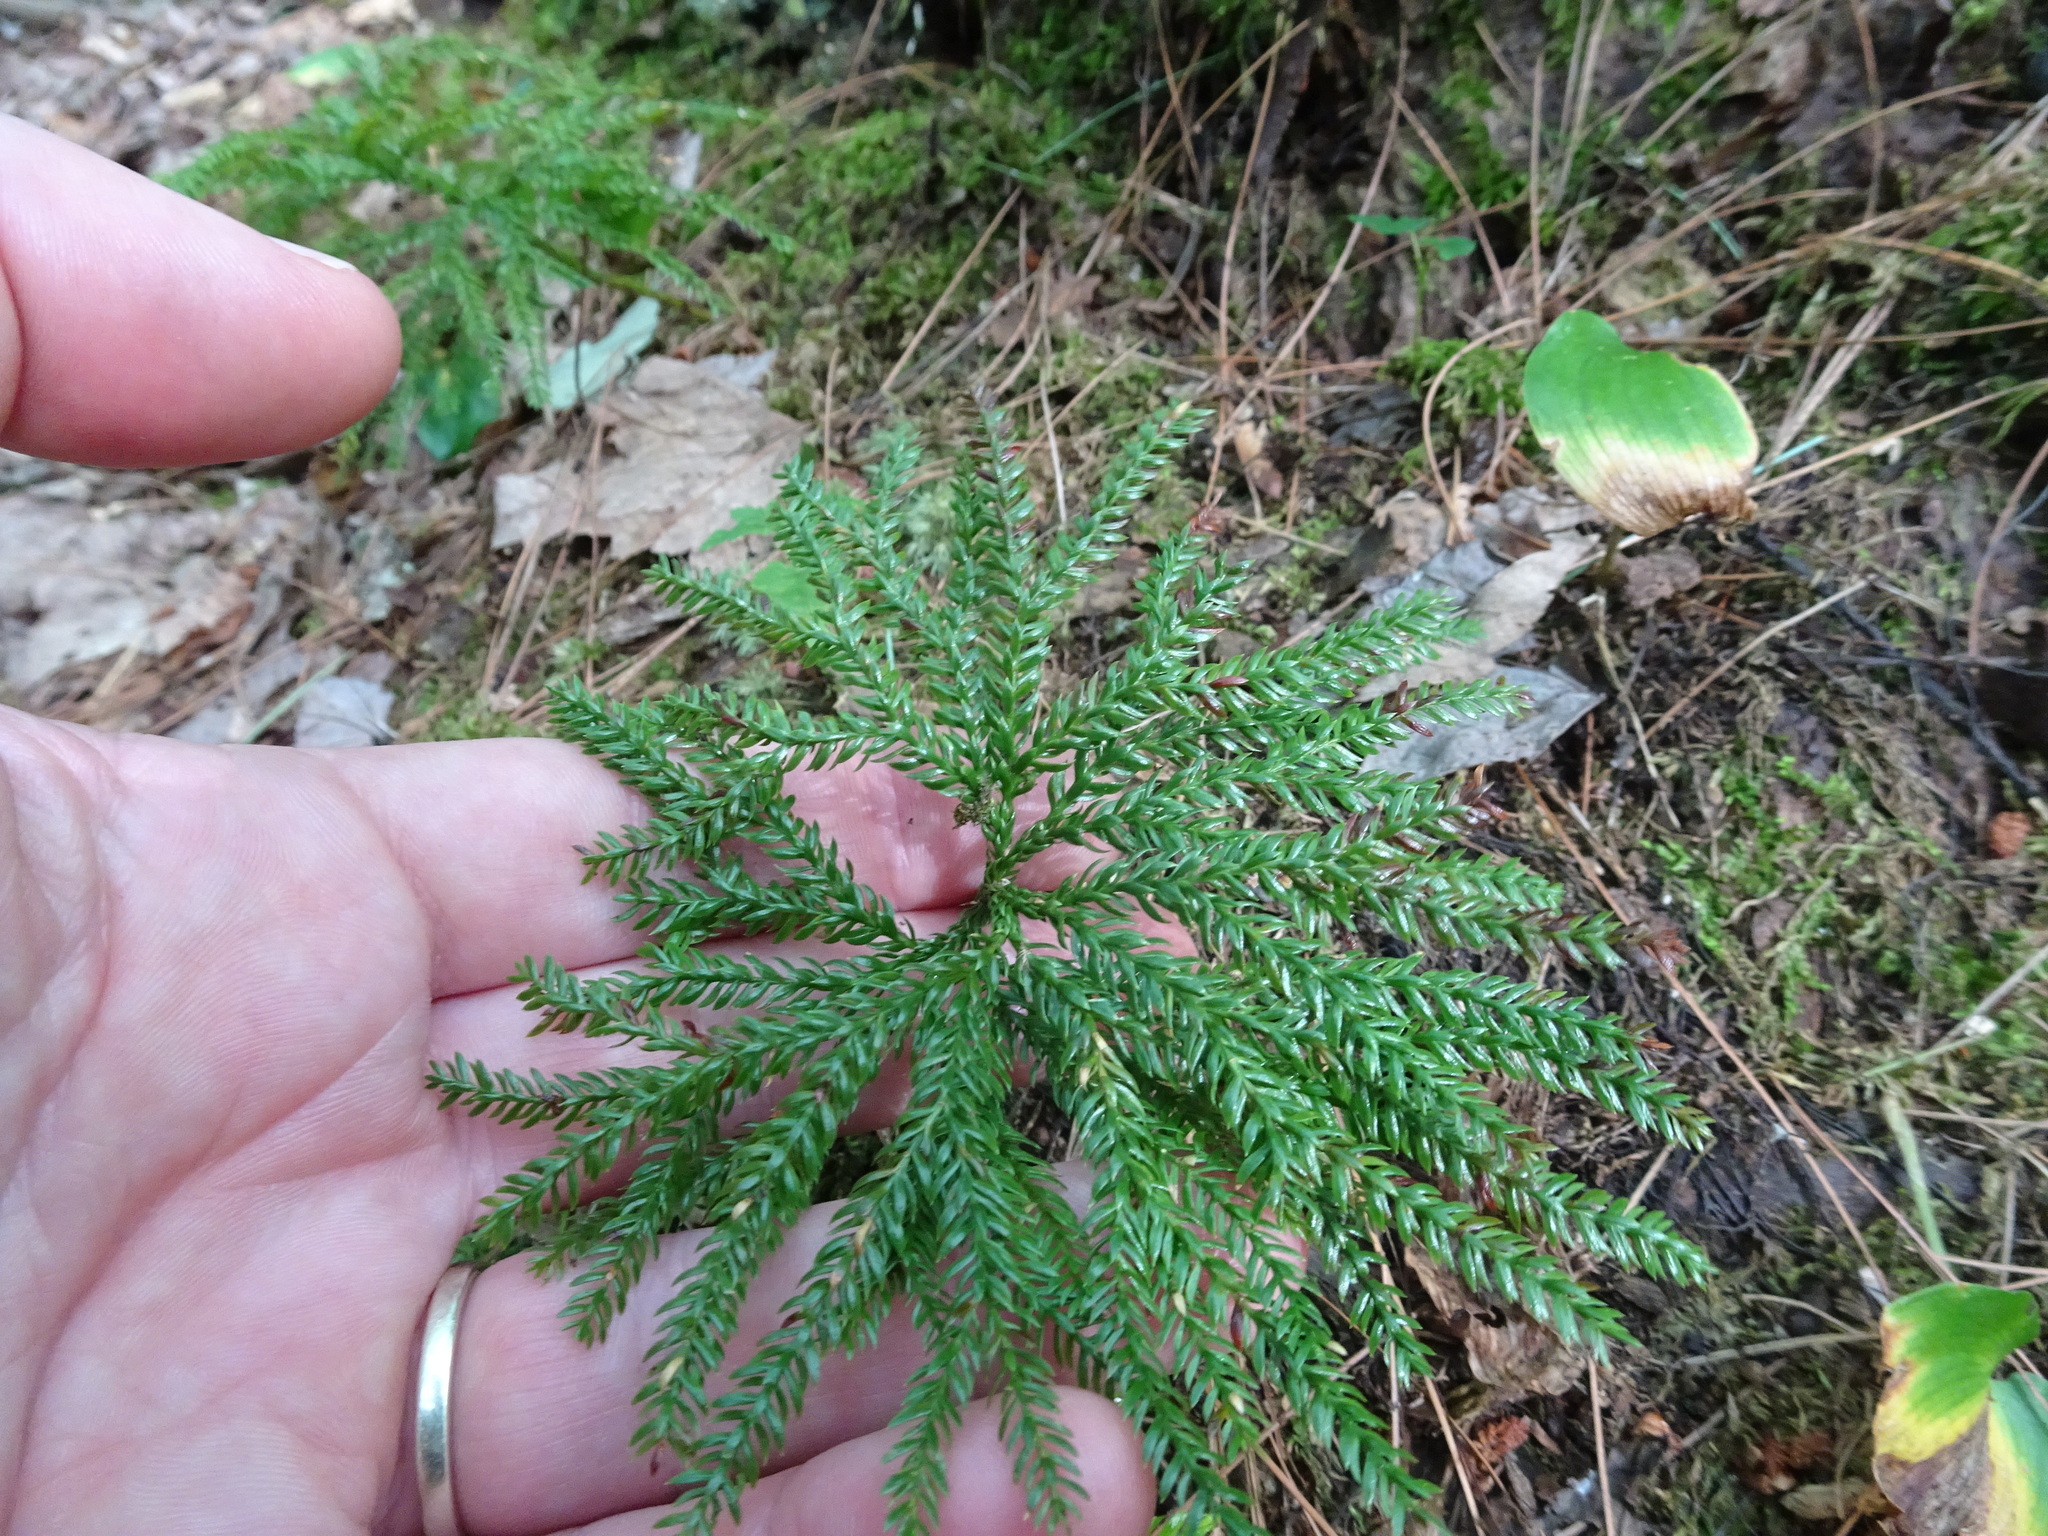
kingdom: Plantae
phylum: Tracheophyta
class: Lycopodiopsida
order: Lycopodiales
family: Lycopodiaceae
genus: Dendrolycopodium
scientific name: Dendrolycopodium obscurum
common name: Common ground-pine
